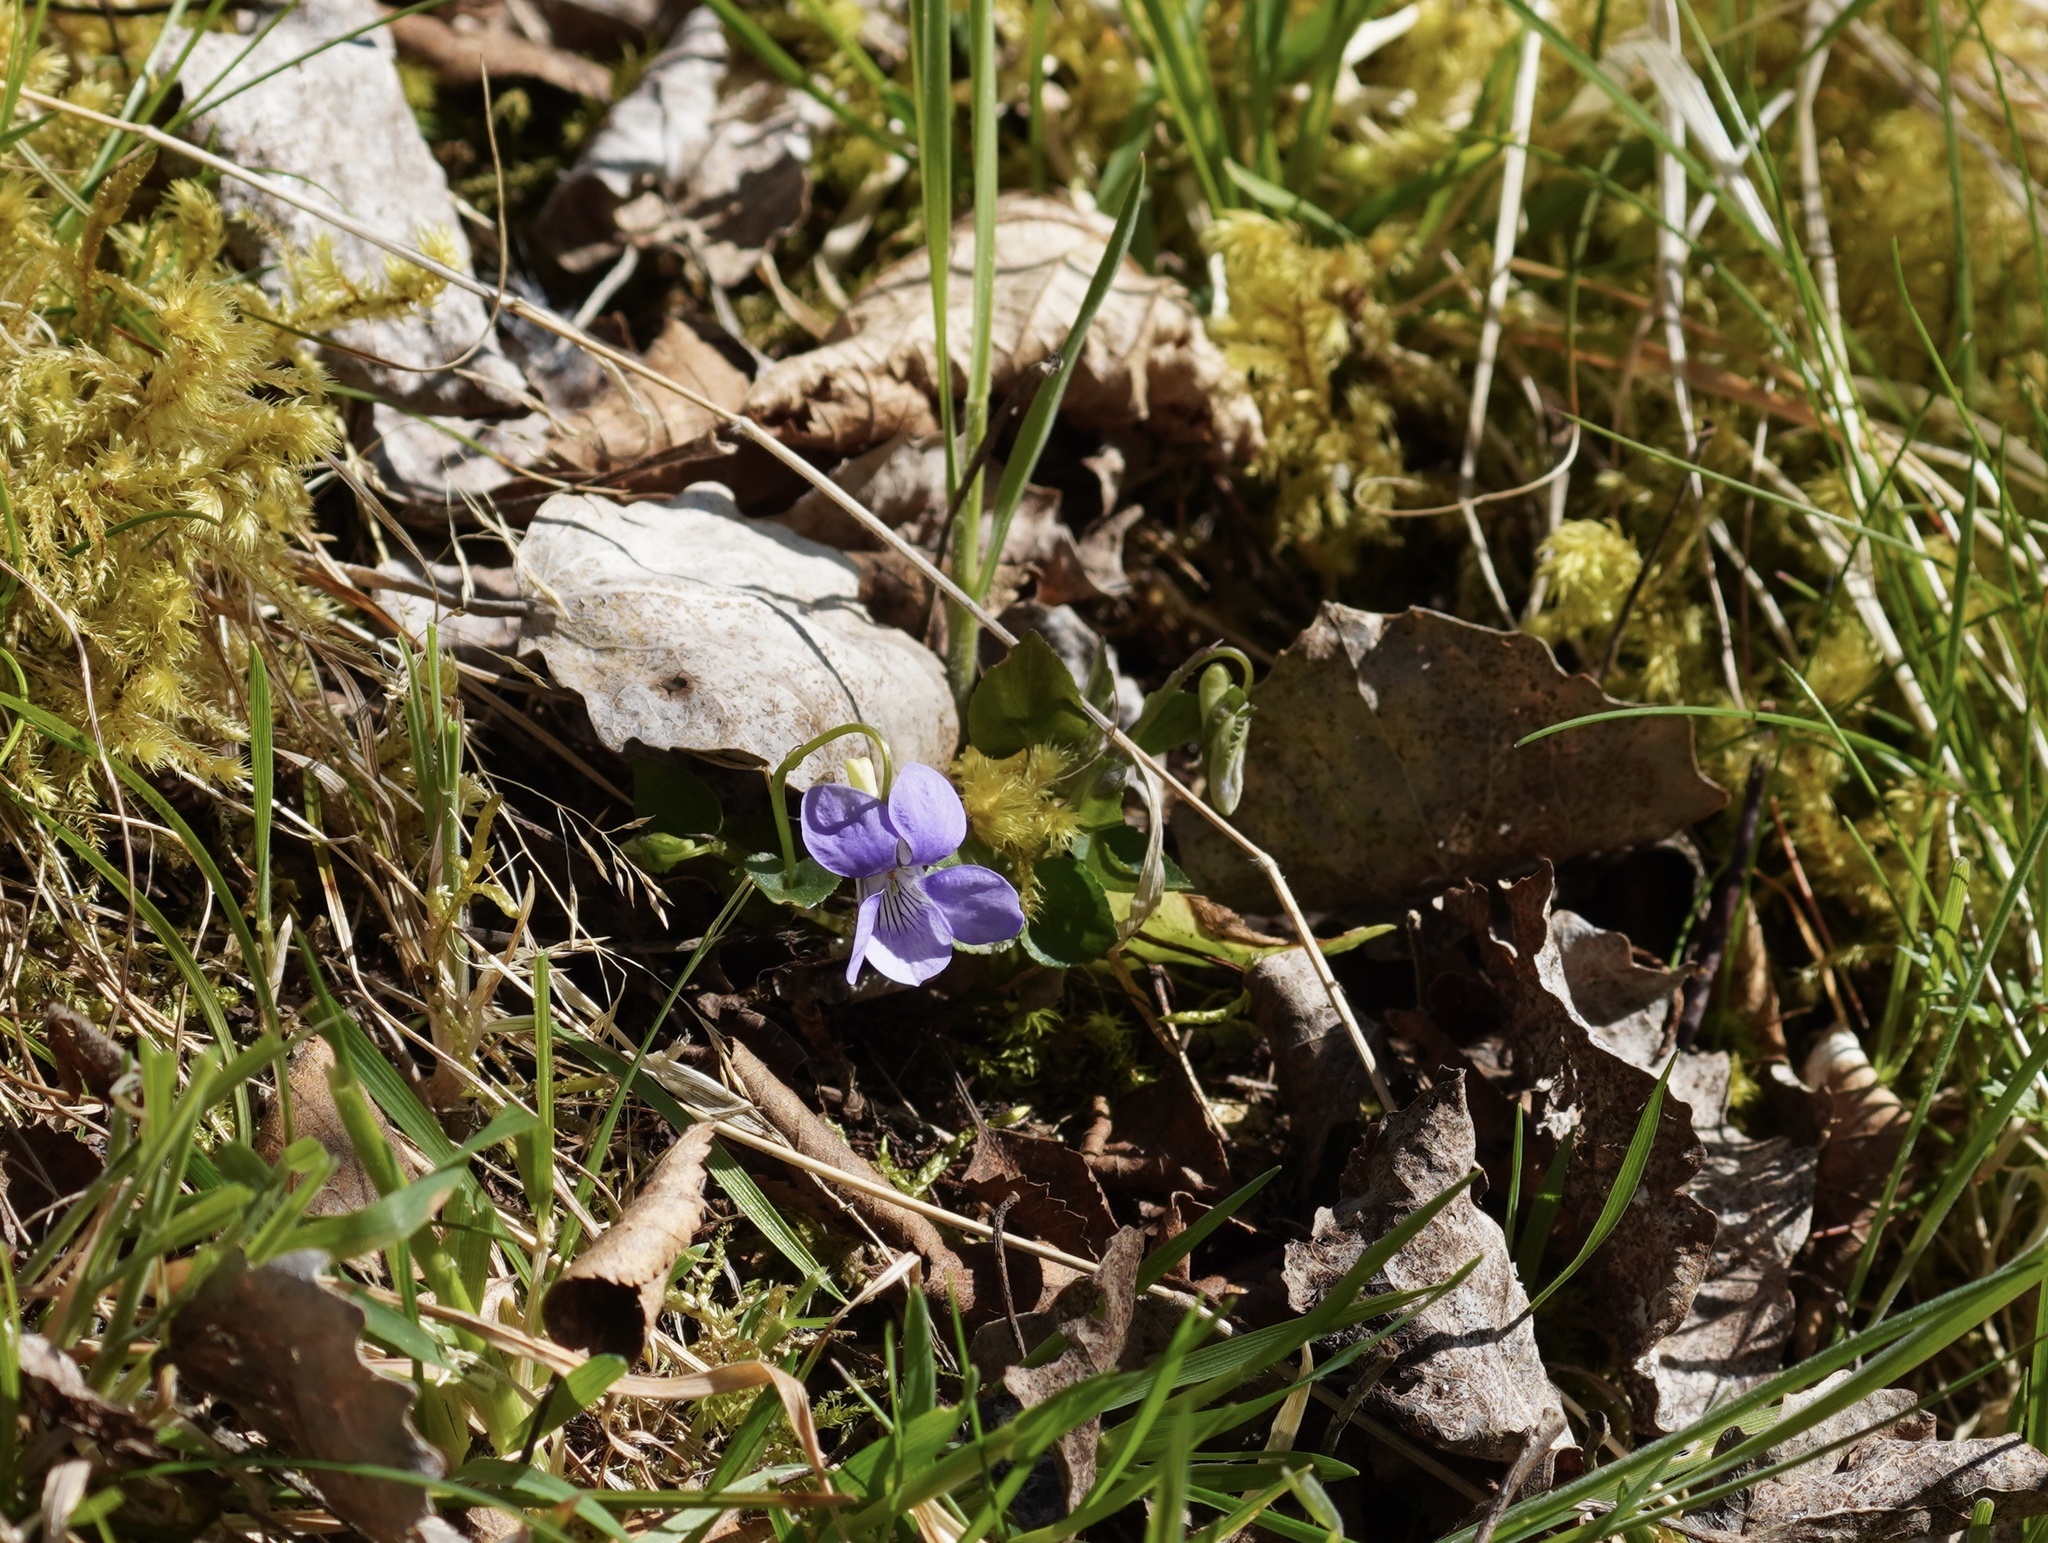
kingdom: Plantae
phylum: Tracheophyta
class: Magnoliopsida
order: Malpighiales
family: Violaceae
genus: Viola
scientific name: Viola riviniana
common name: Common dog-violet
